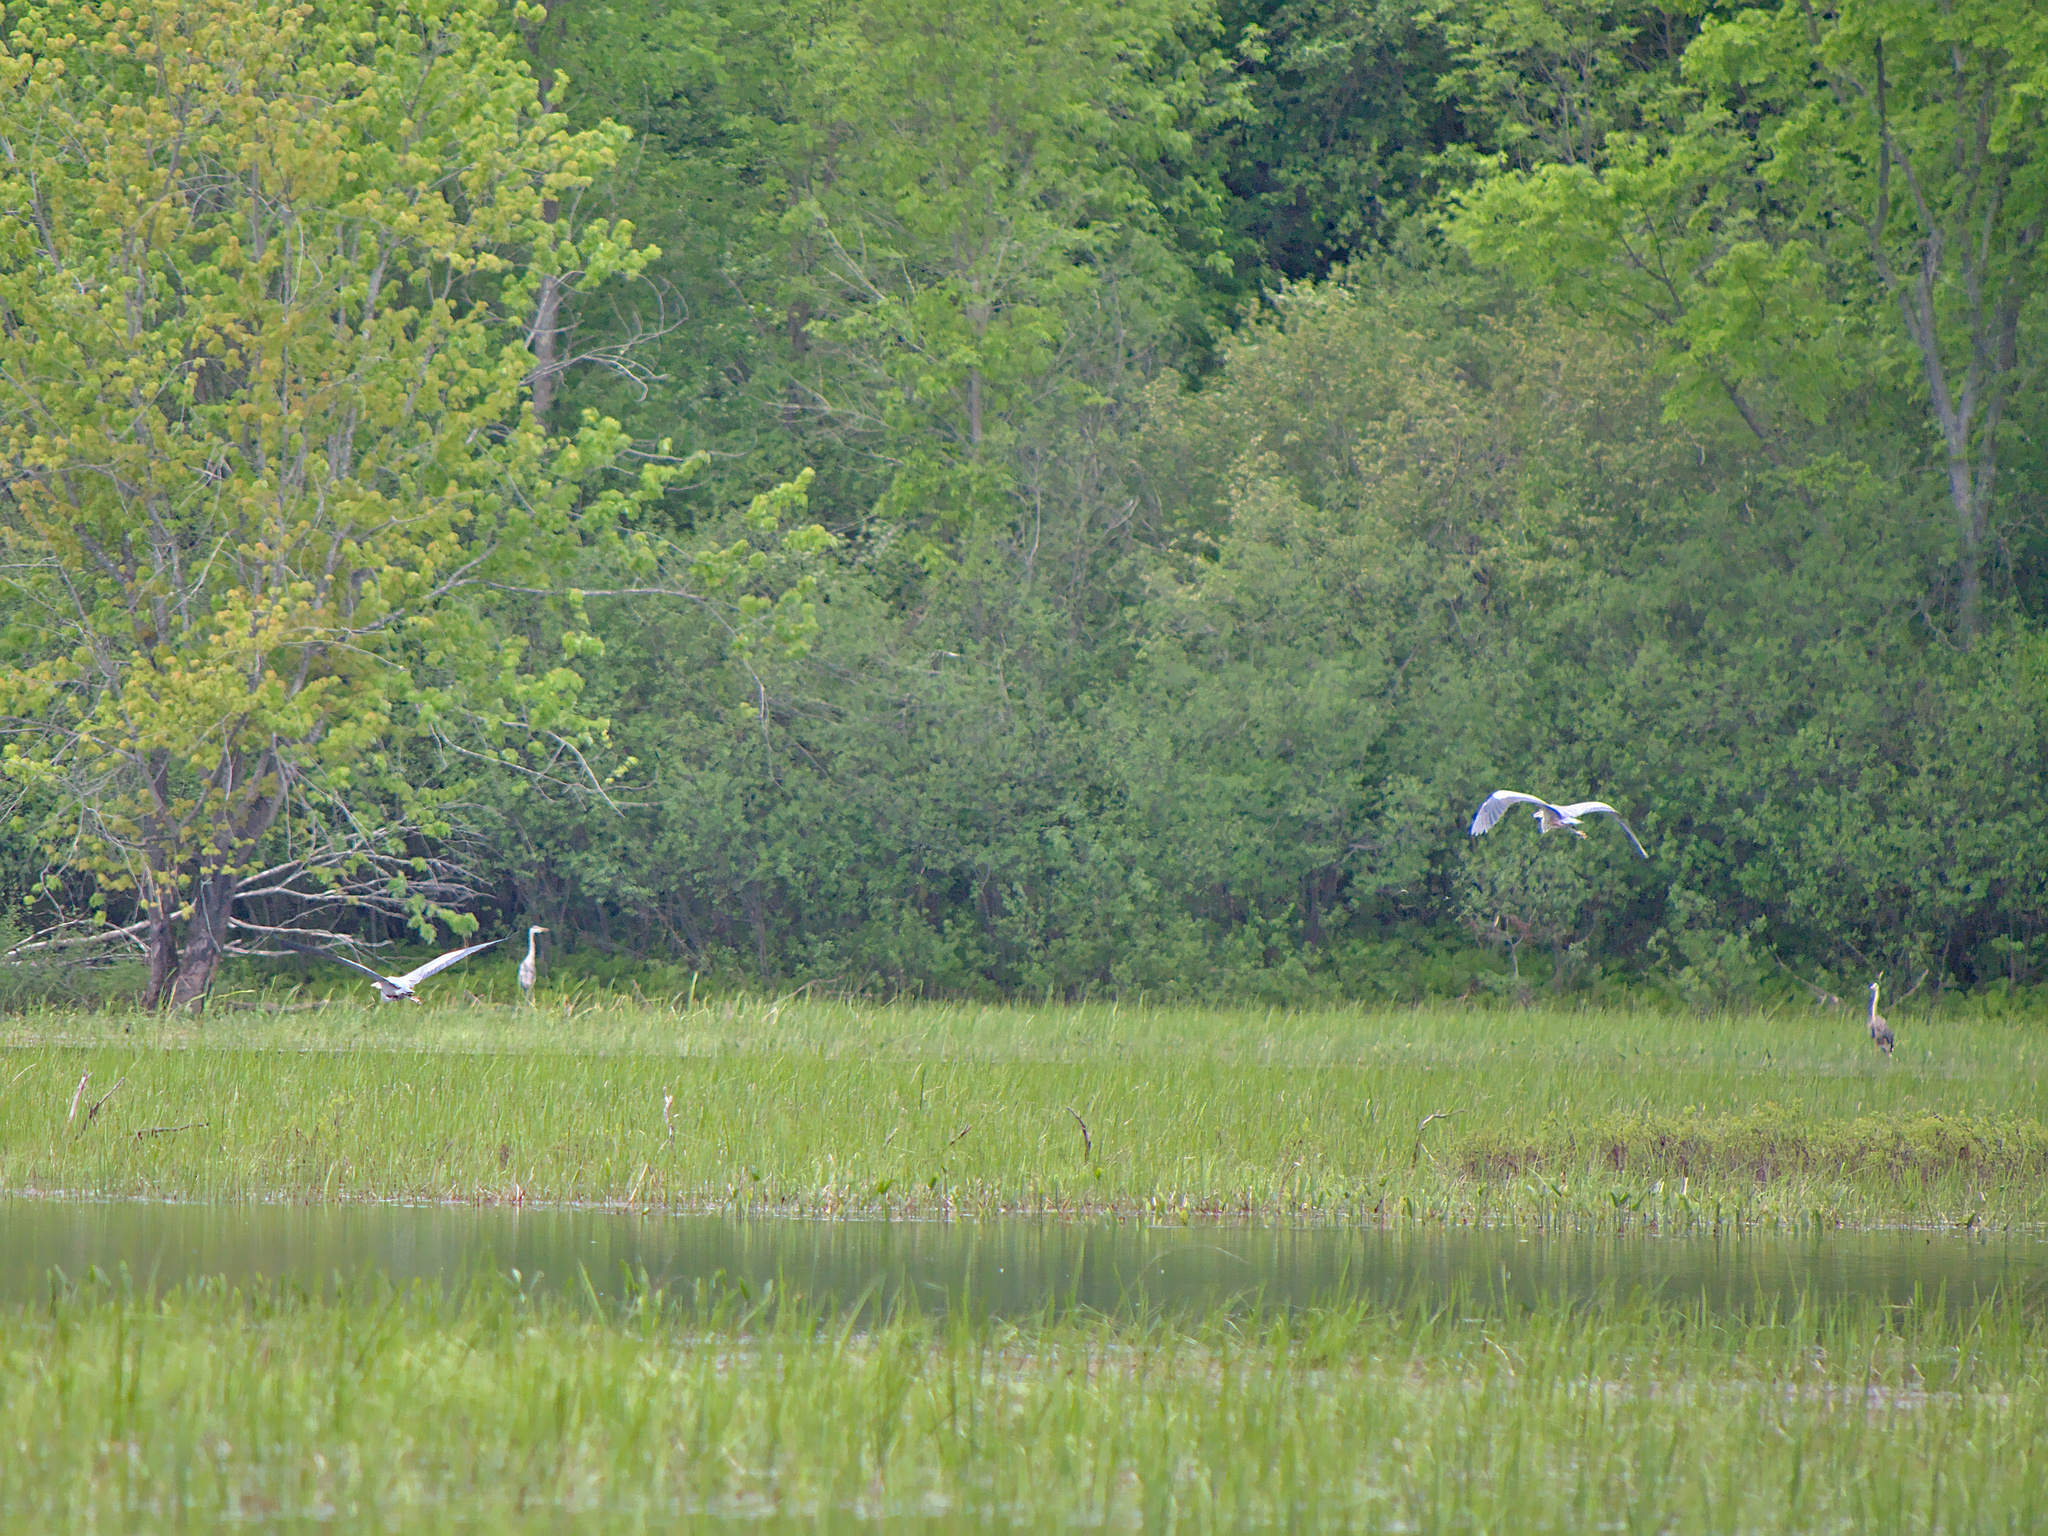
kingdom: Animalia
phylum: Chordata
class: Aves
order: Pelecaniformes
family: Ardeidae
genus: Ardea
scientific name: Ardea herodias
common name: Great blue heron
